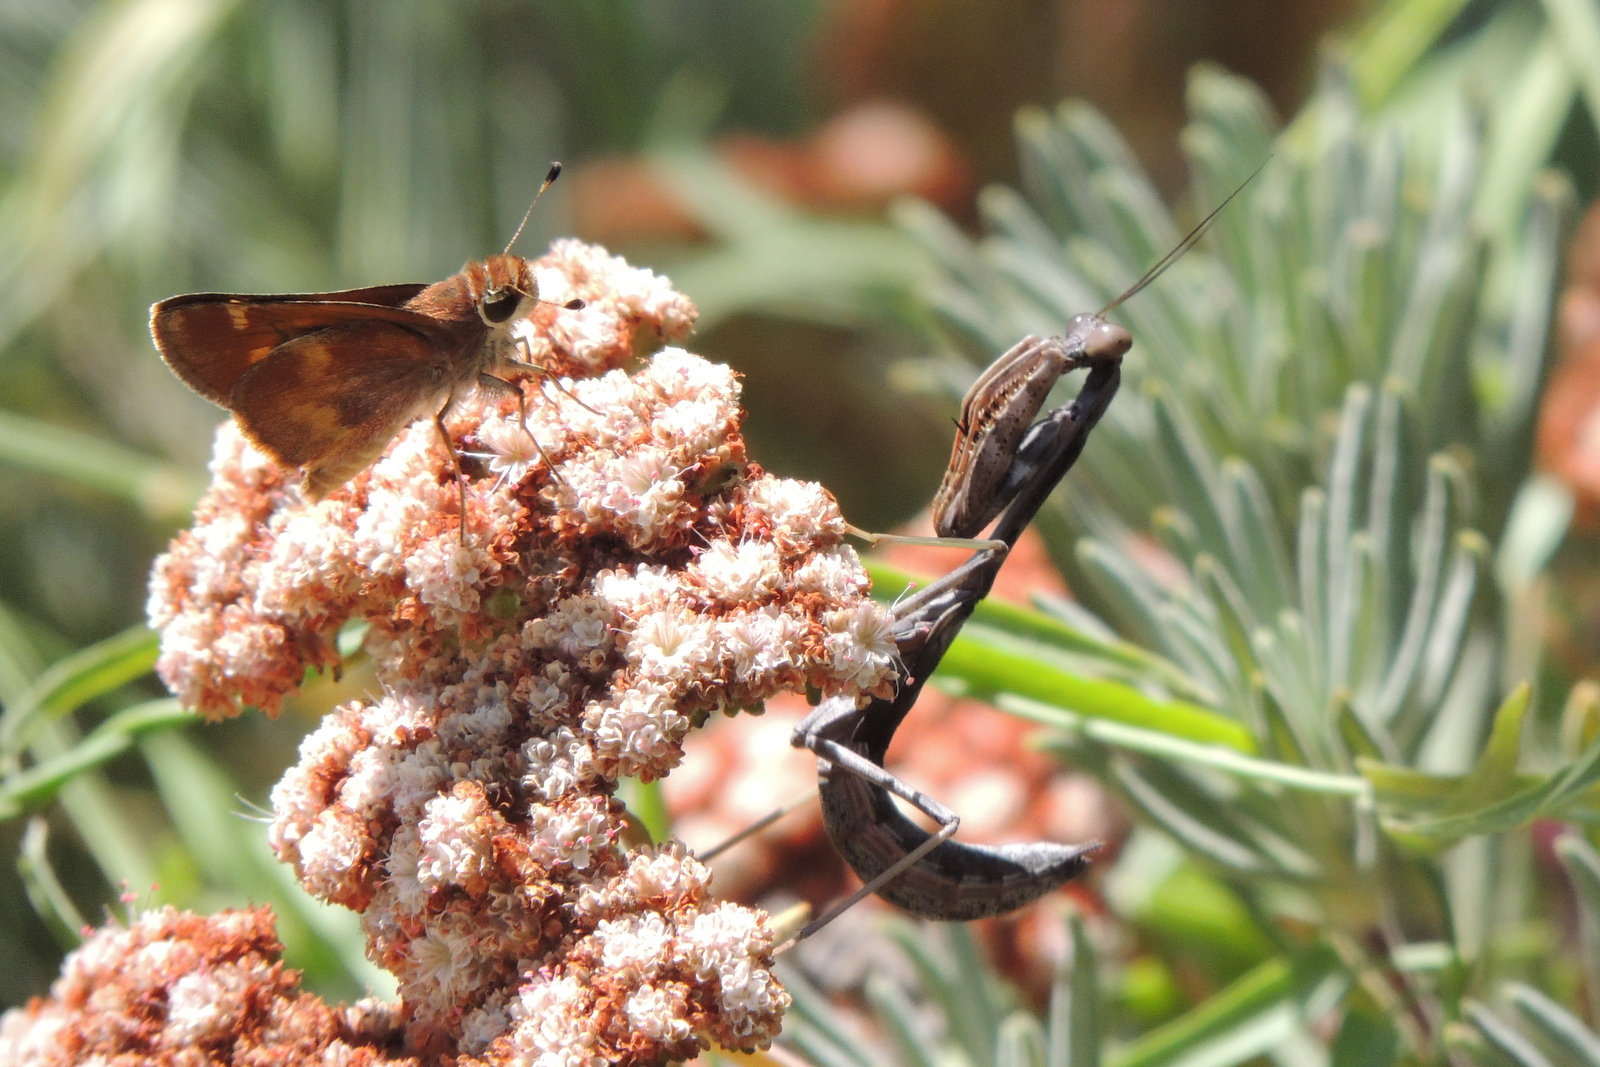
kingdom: Animalia
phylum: Arthropoda
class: Insecta
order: Lepidoptera
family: Hesperiidae
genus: Lon
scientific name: Lon melane
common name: Umber skipper
